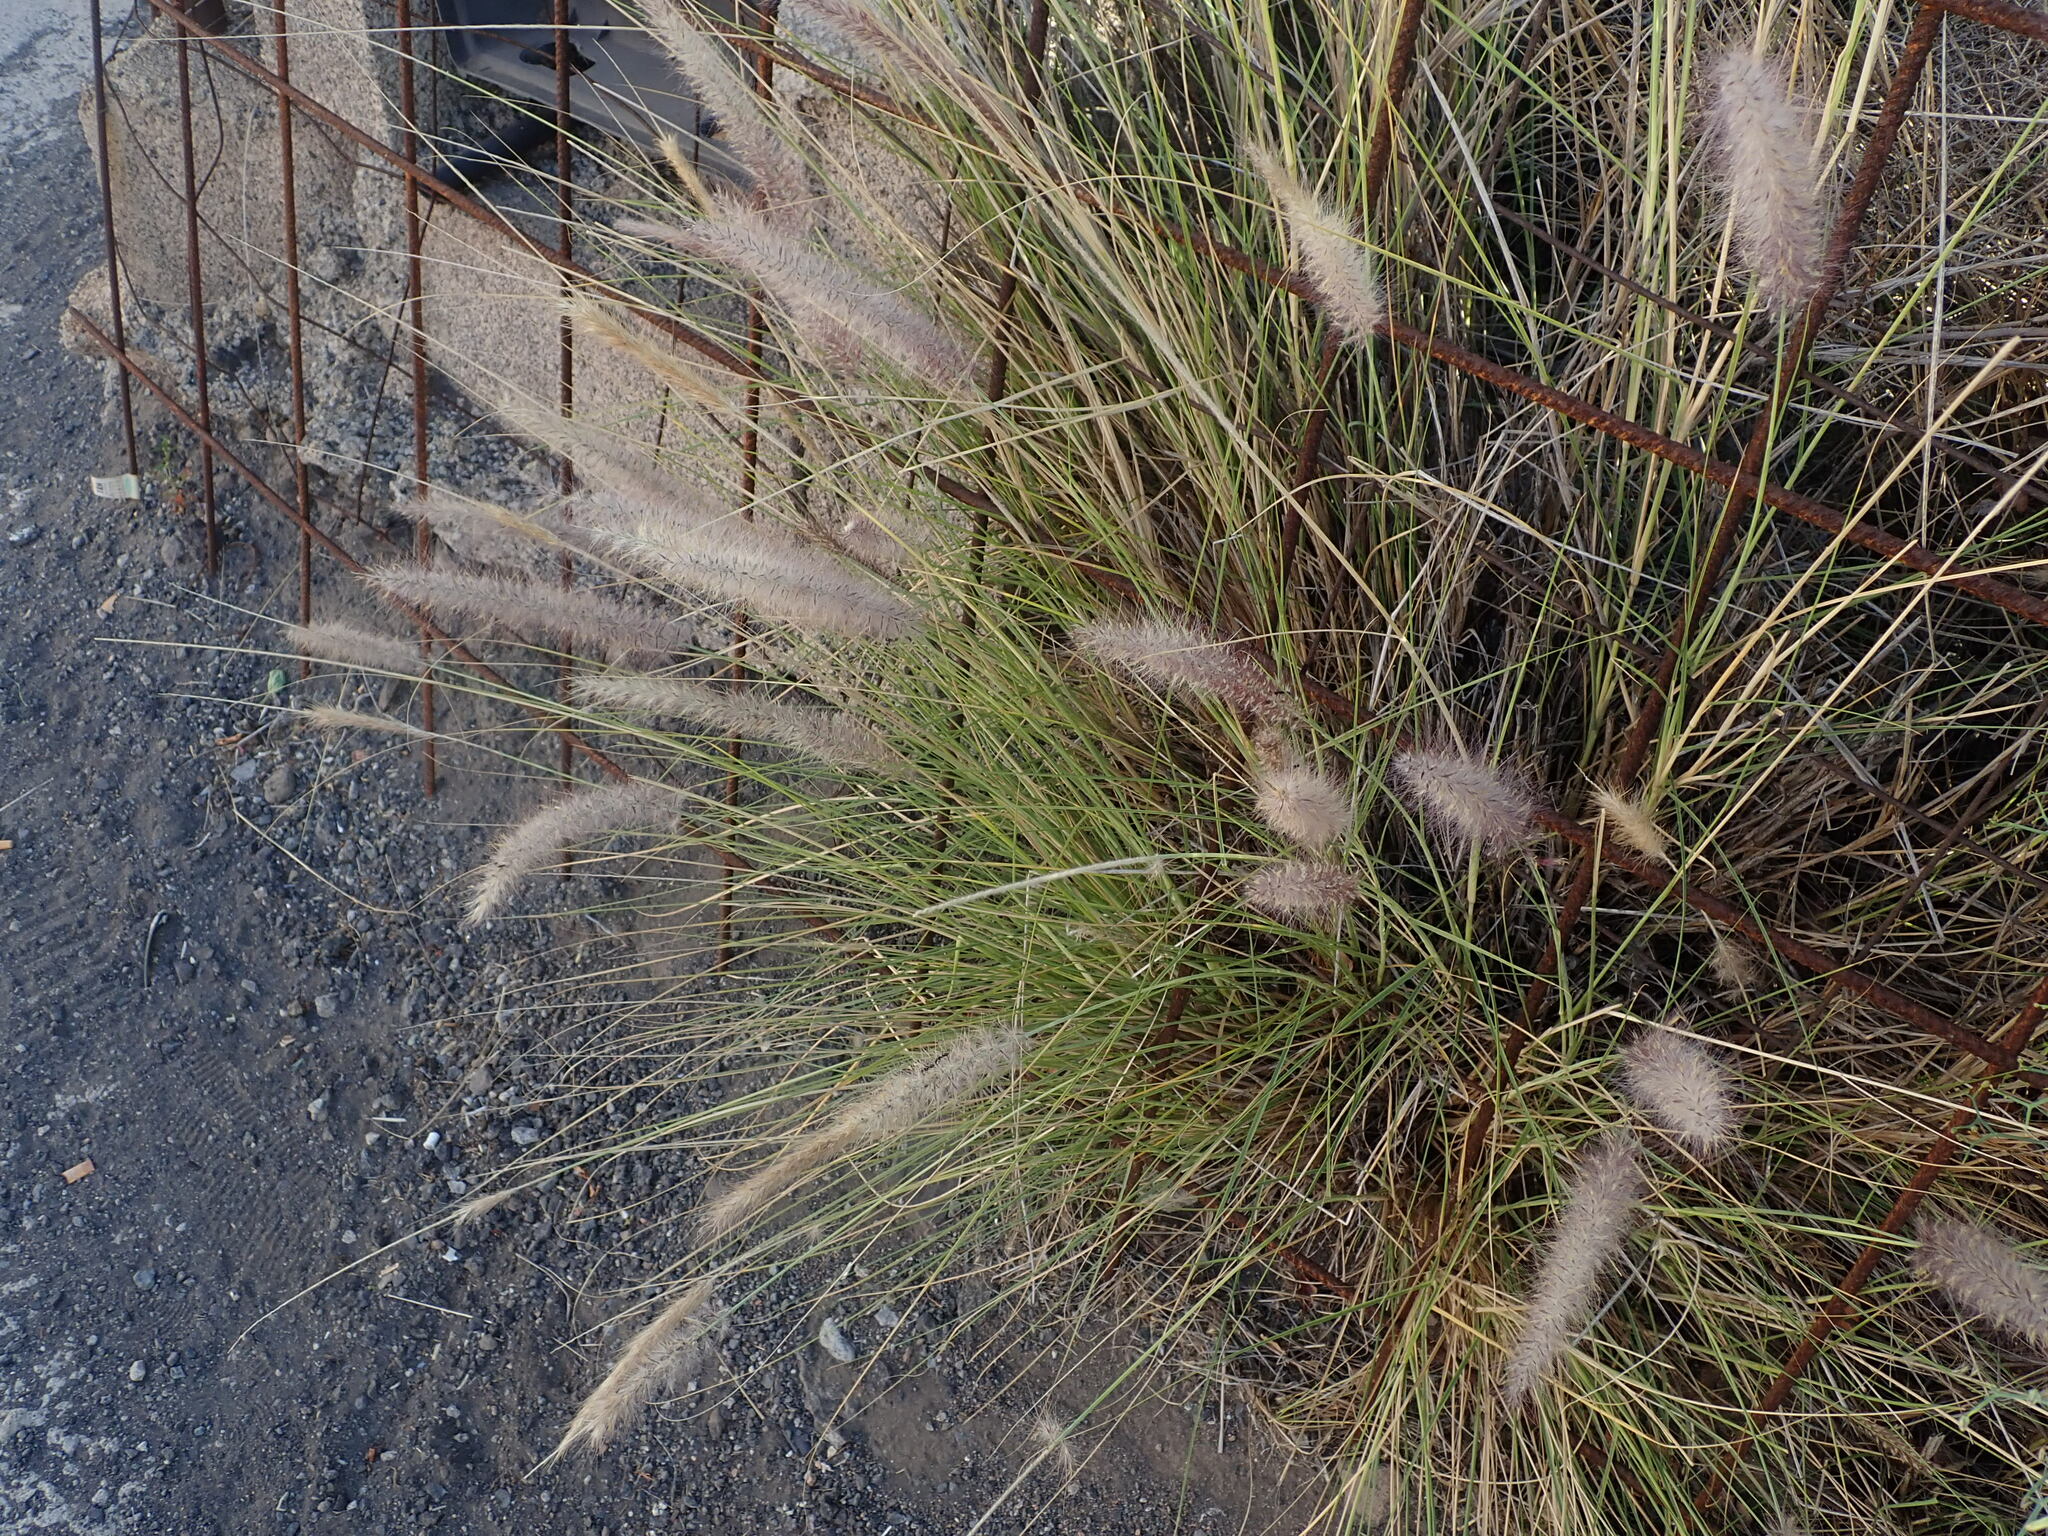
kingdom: Plantae
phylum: Tracheophyta
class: Liliopsida
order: Poales
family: Poaceae
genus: Cenchrus
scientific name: Cenchrus setaceus
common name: Crimson fountaingrass
